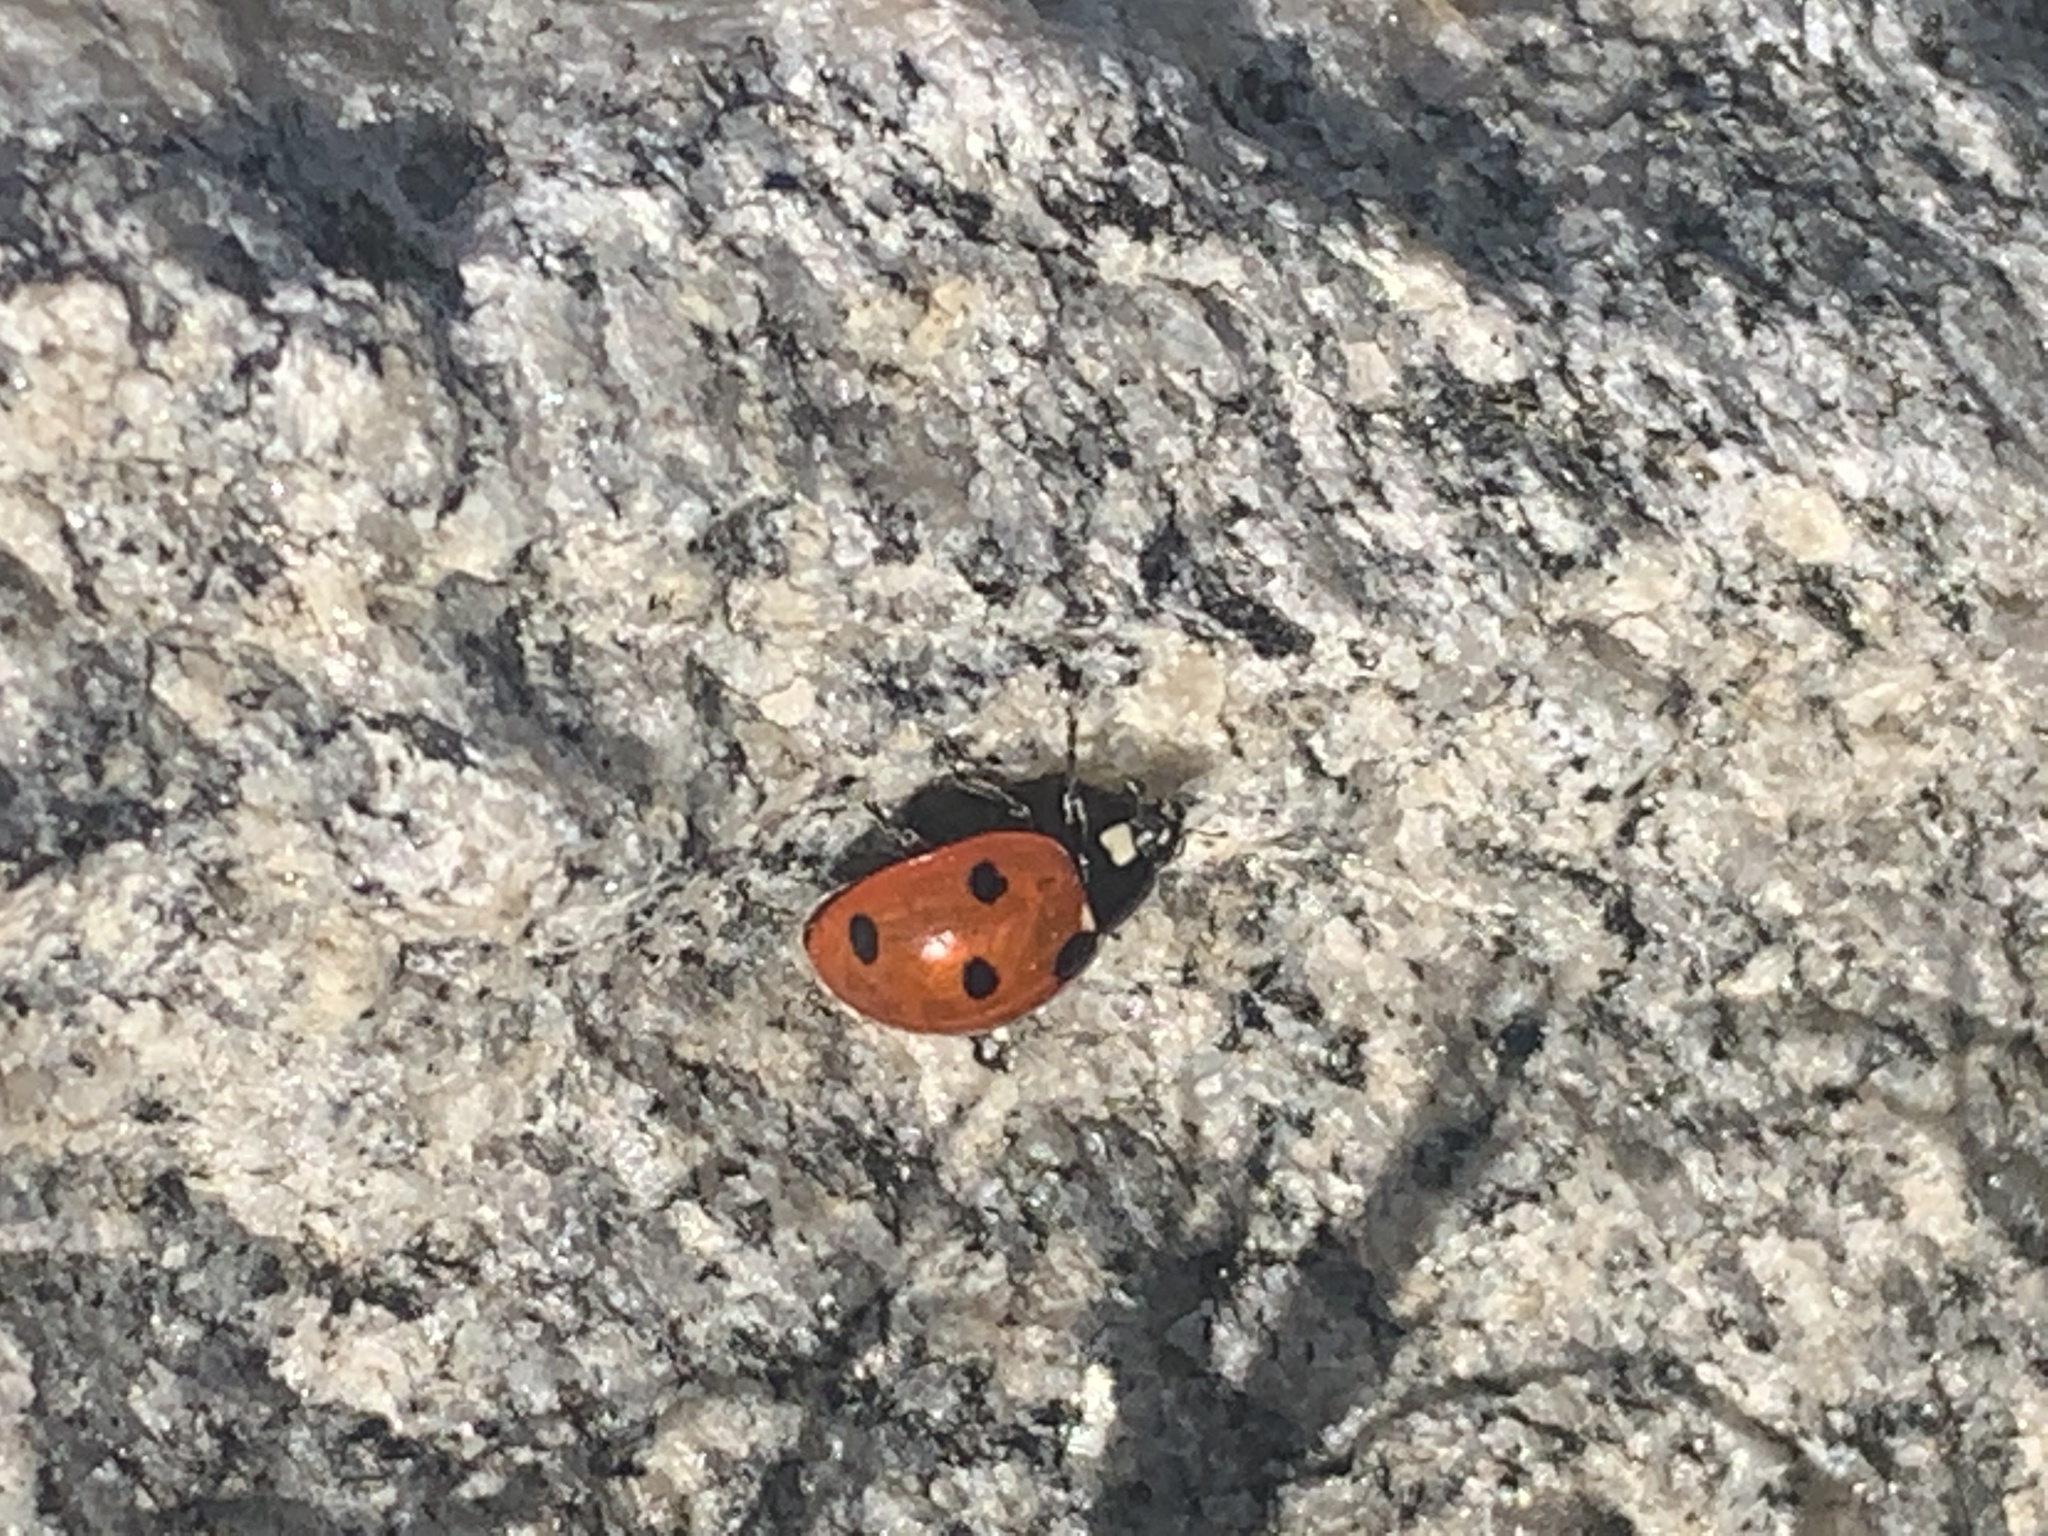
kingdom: Animalia
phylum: Arthropoda
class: Insecta
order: Coleoptera
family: Coccinellidae
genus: Coccinella
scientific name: Coccinella septempunctata
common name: Sevenspotted lady beetle
